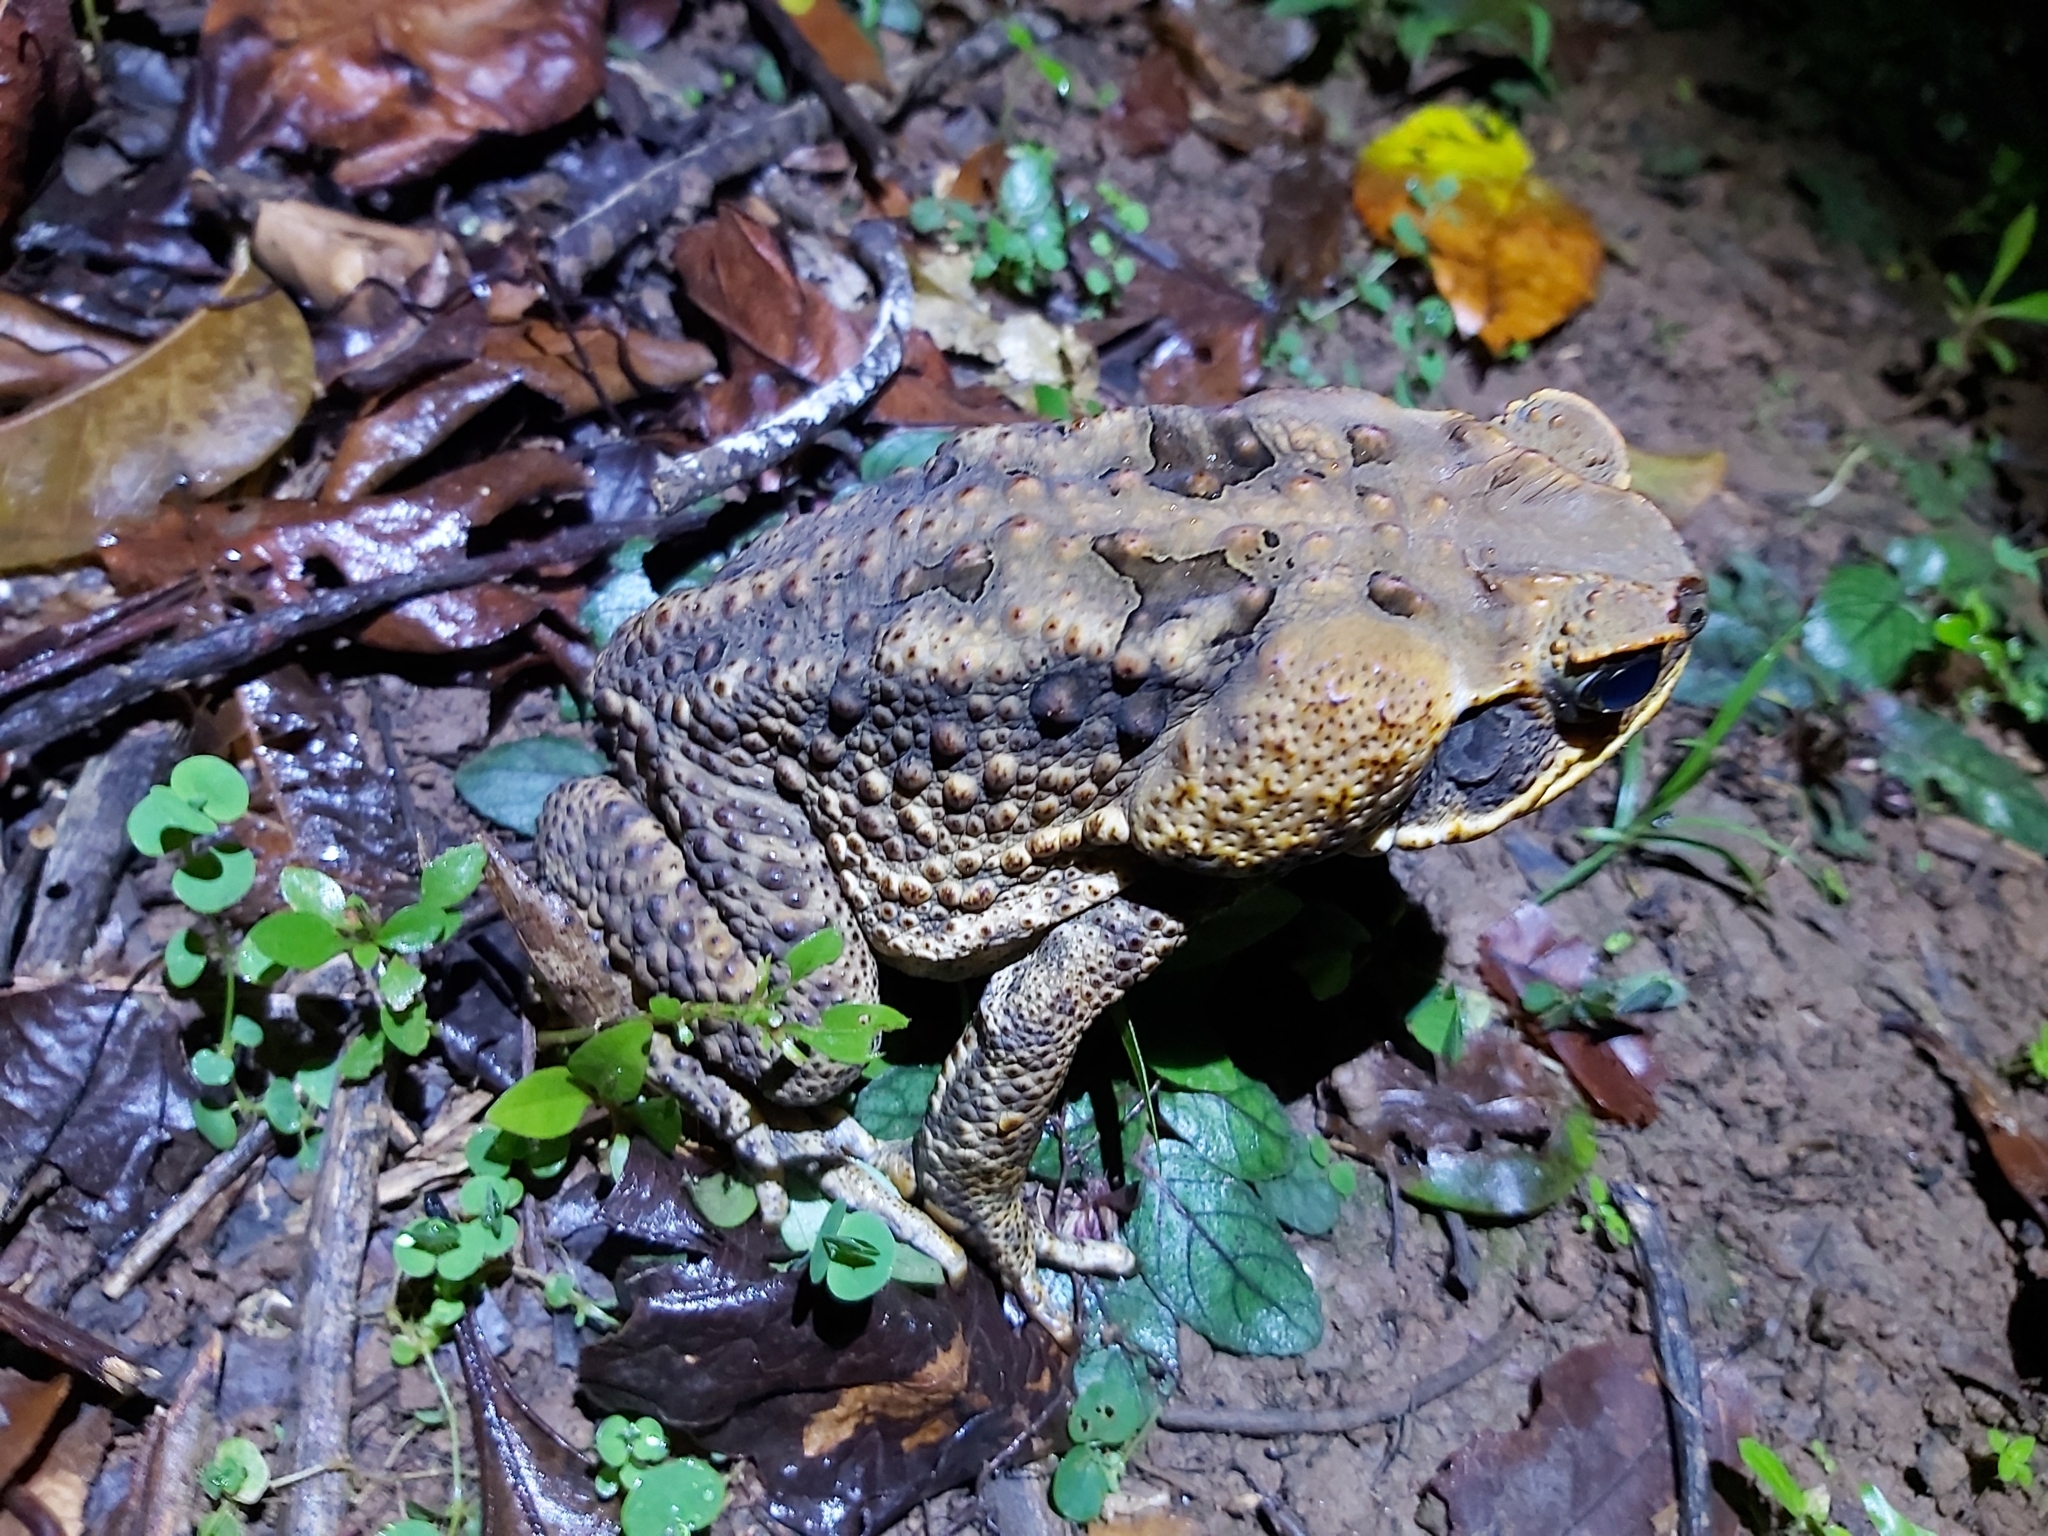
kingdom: Animalia
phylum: Chordata
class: Amphibia
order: Anura
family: Bufonidae
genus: Rhinella
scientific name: Rhinella marina
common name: Cane toad
